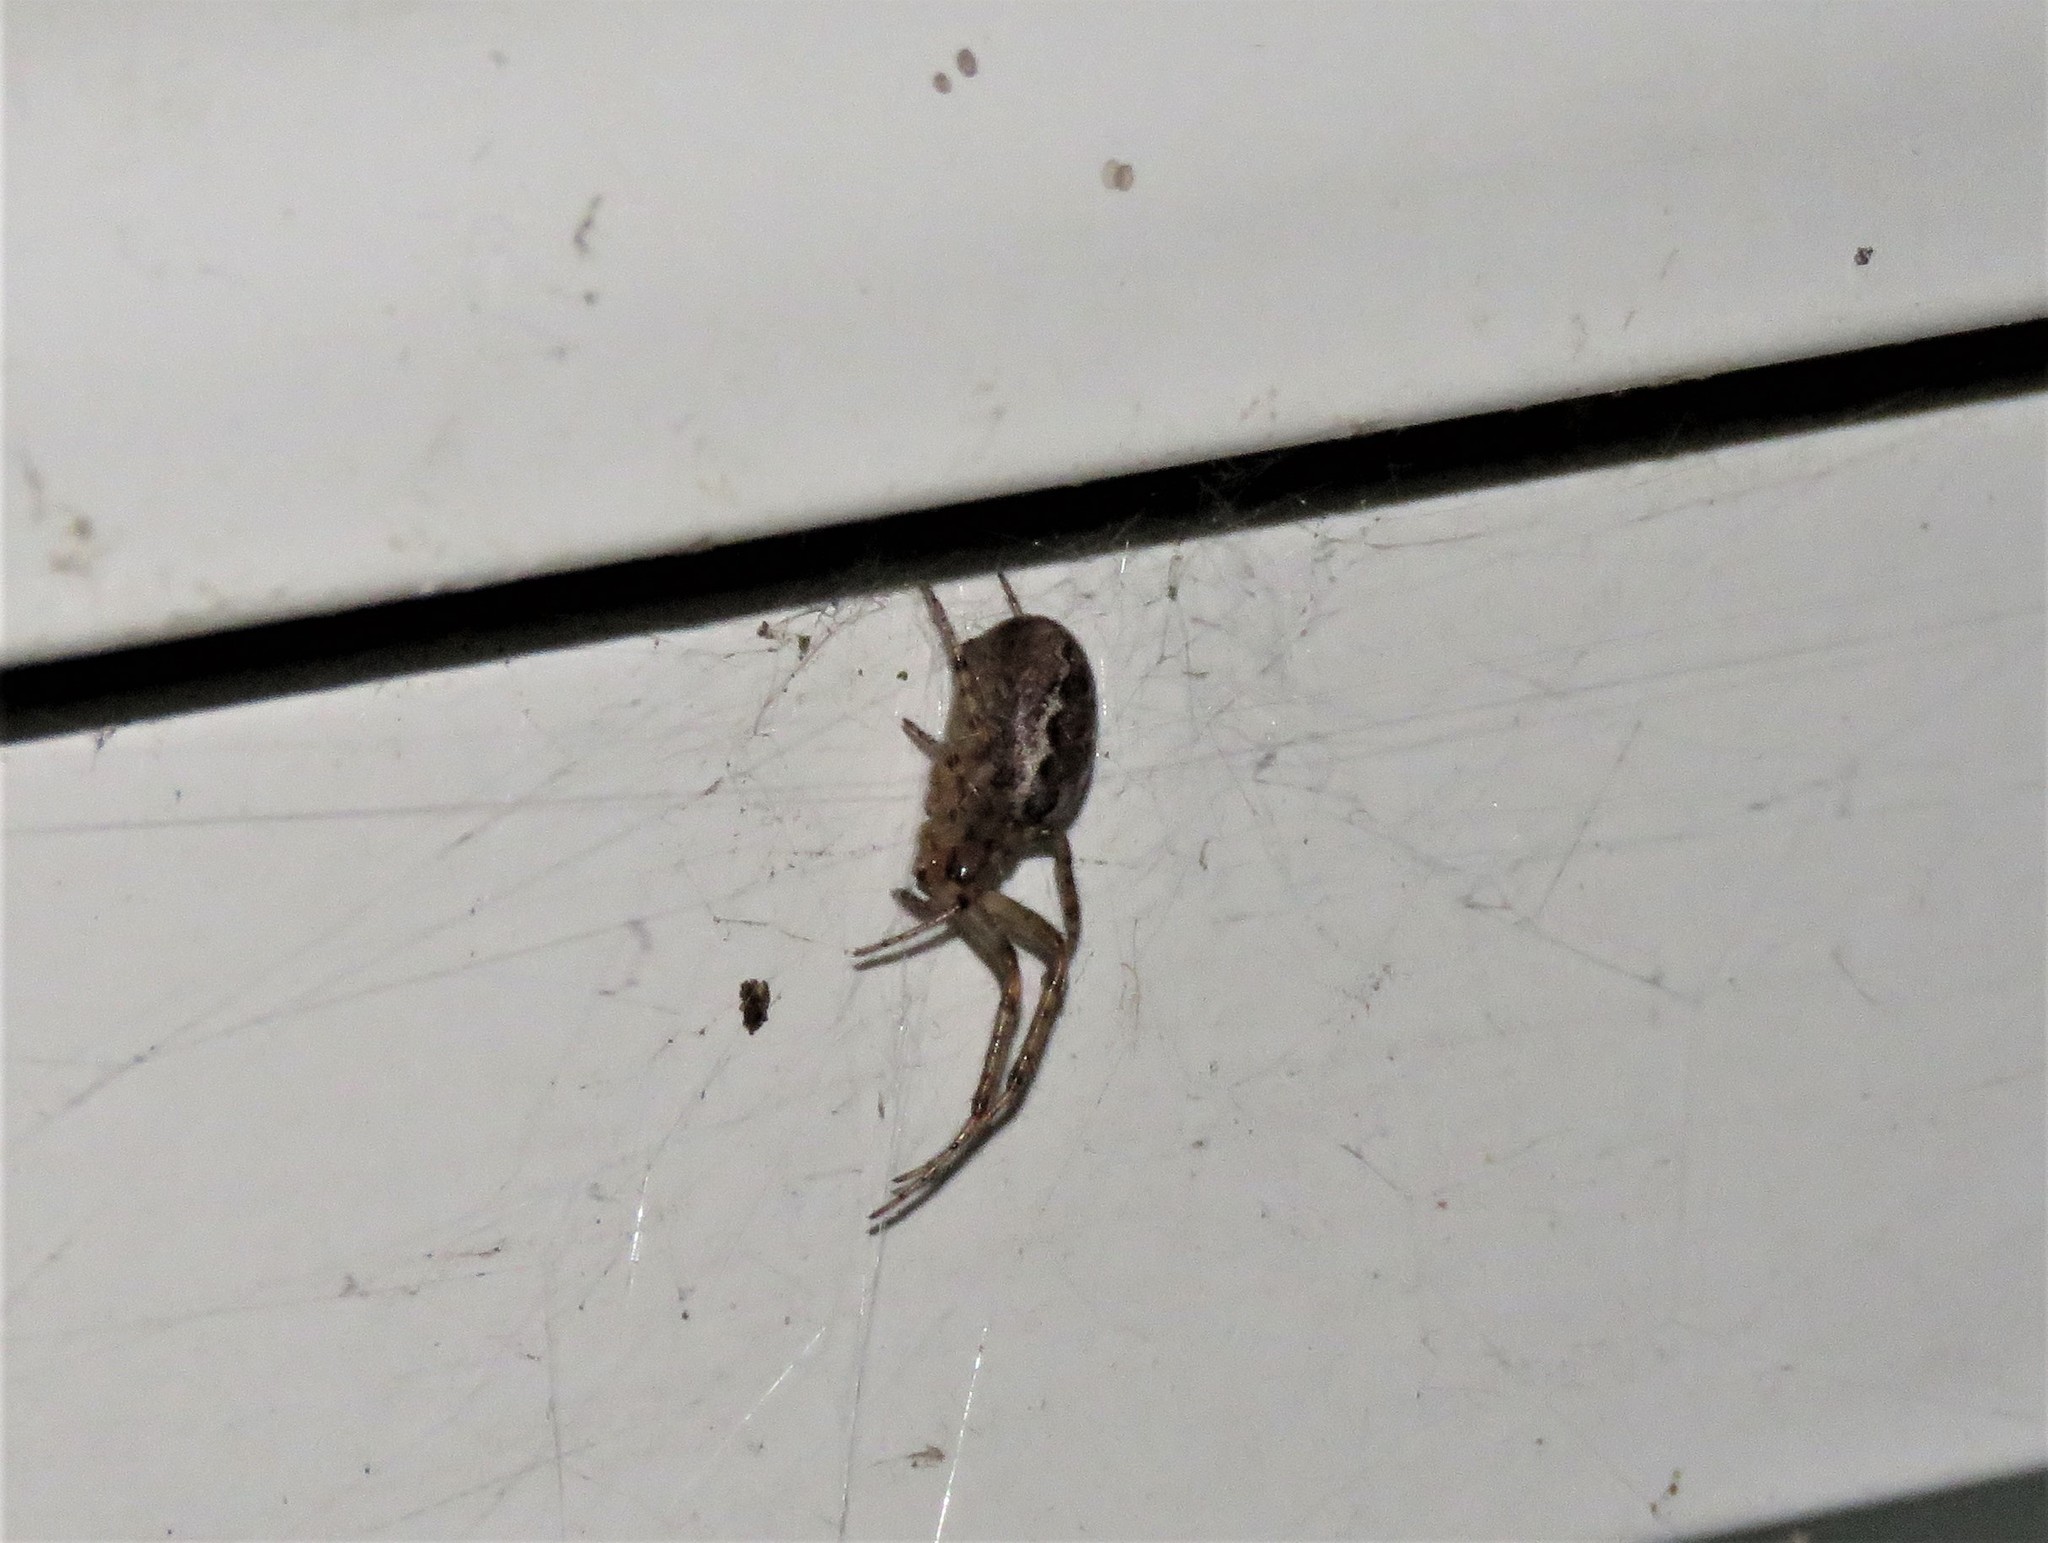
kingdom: Animalia
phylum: Arthropoda
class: Arachnida
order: Araneae
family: Araneidae
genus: Zygiella
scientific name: Zygiella x-notata
